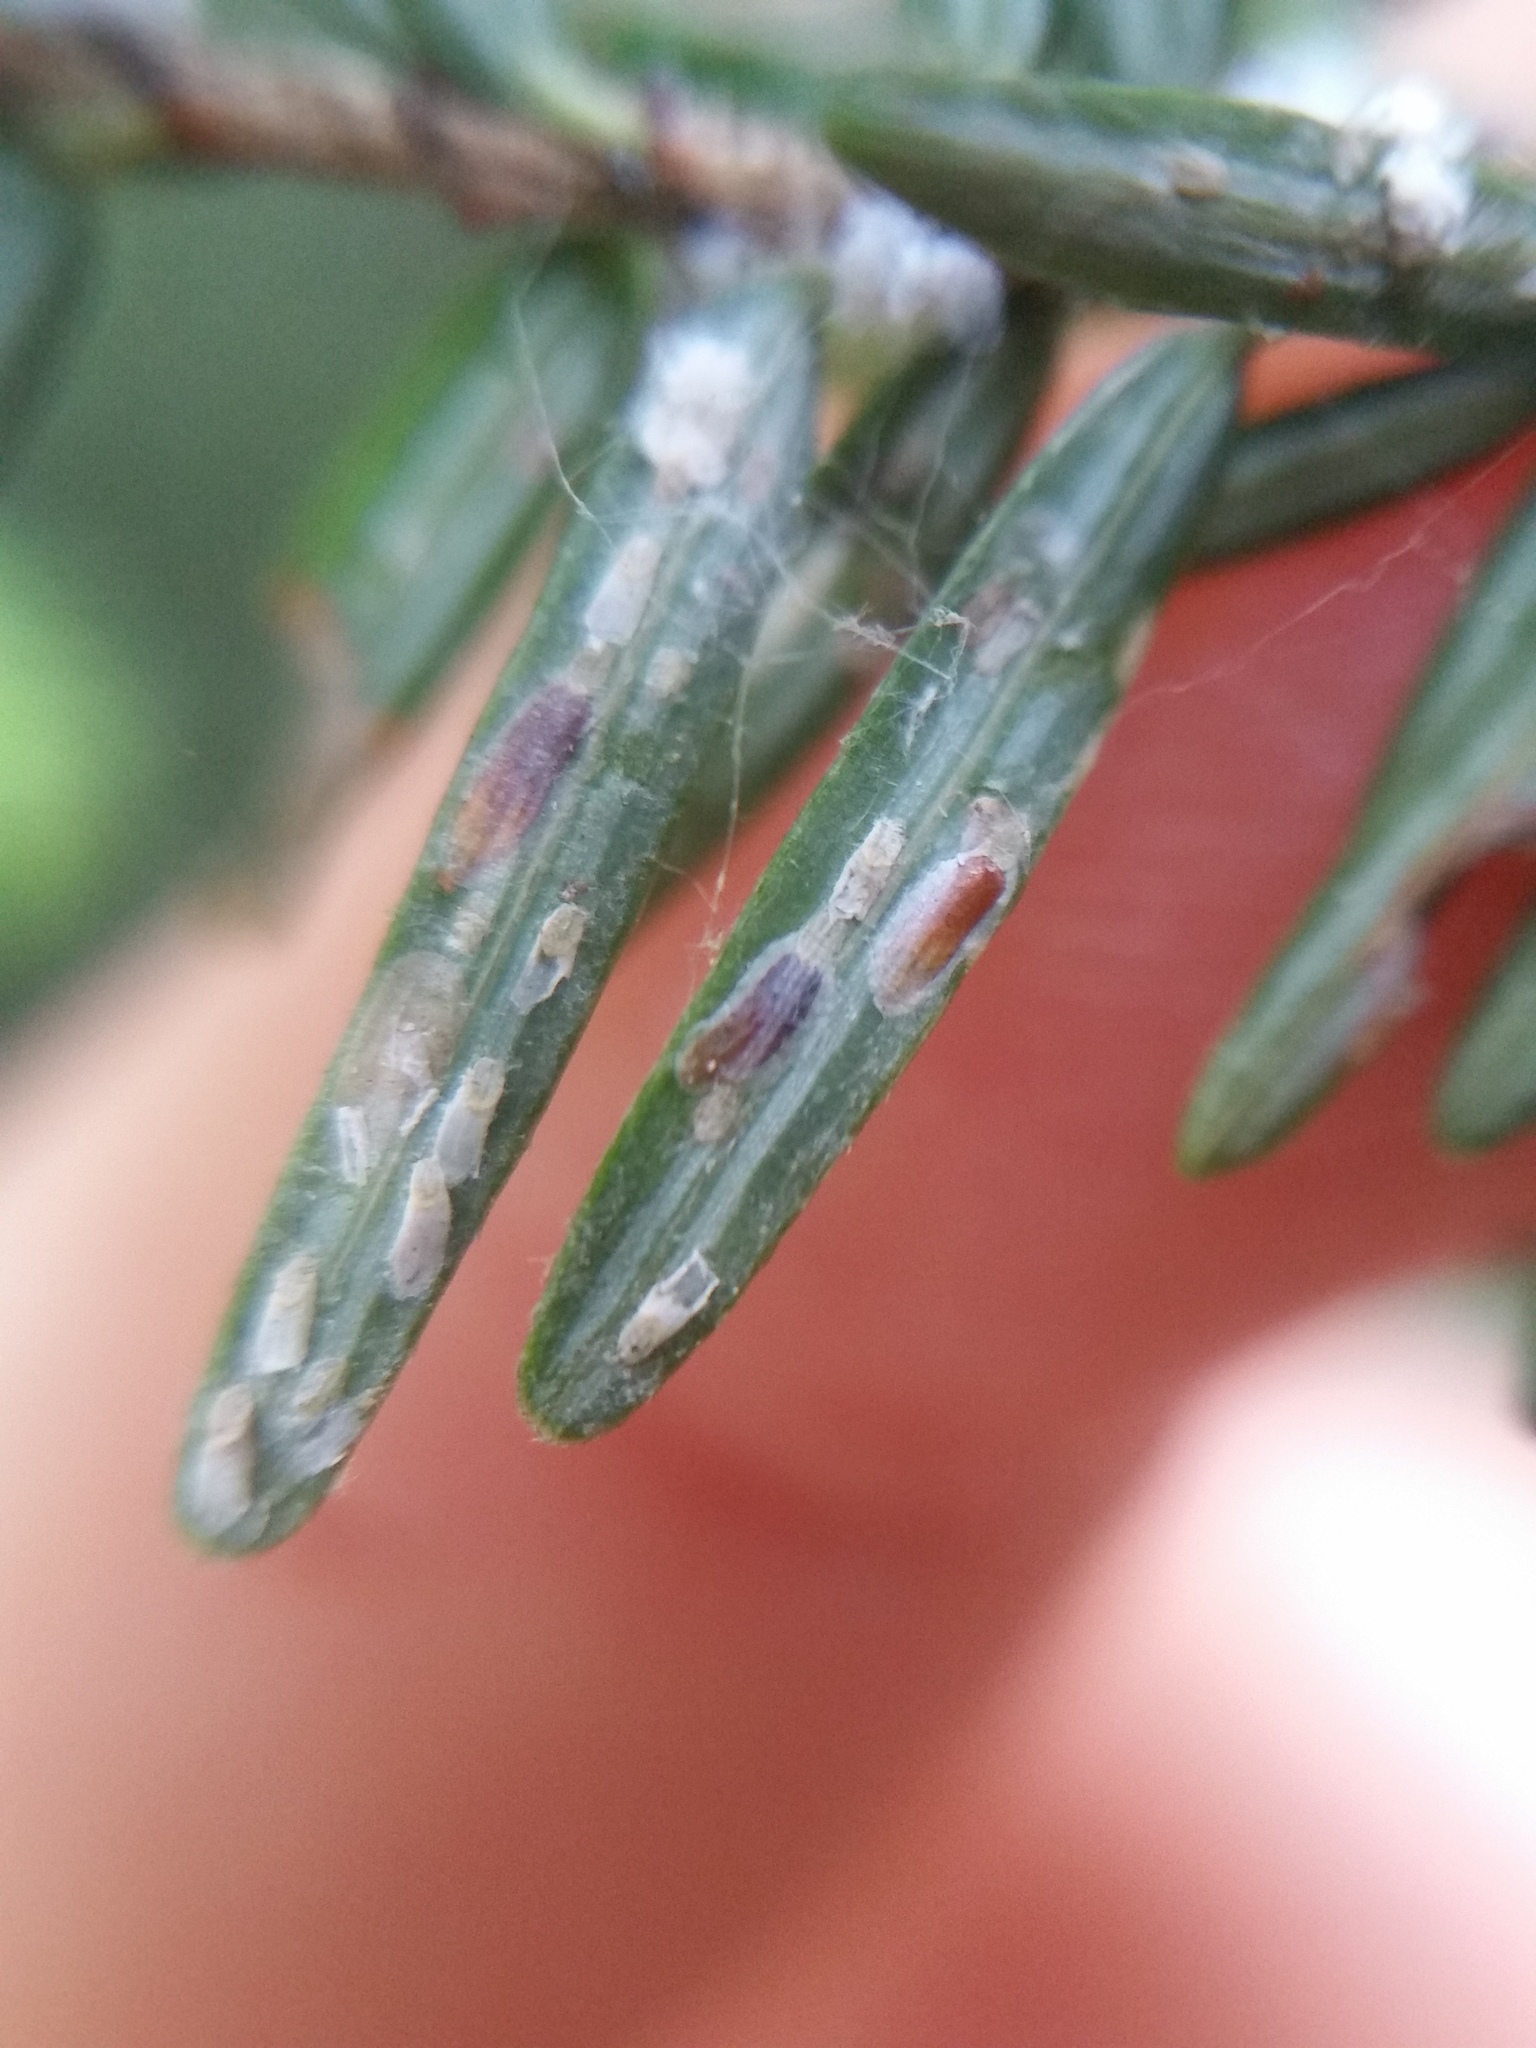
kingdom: Animalia
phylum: Arthropoda
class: Insecta
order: Hemiptera
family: Diaspididae
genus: Fiorinia
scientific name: Fiorinia externa
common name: Elongate hemlock scale
